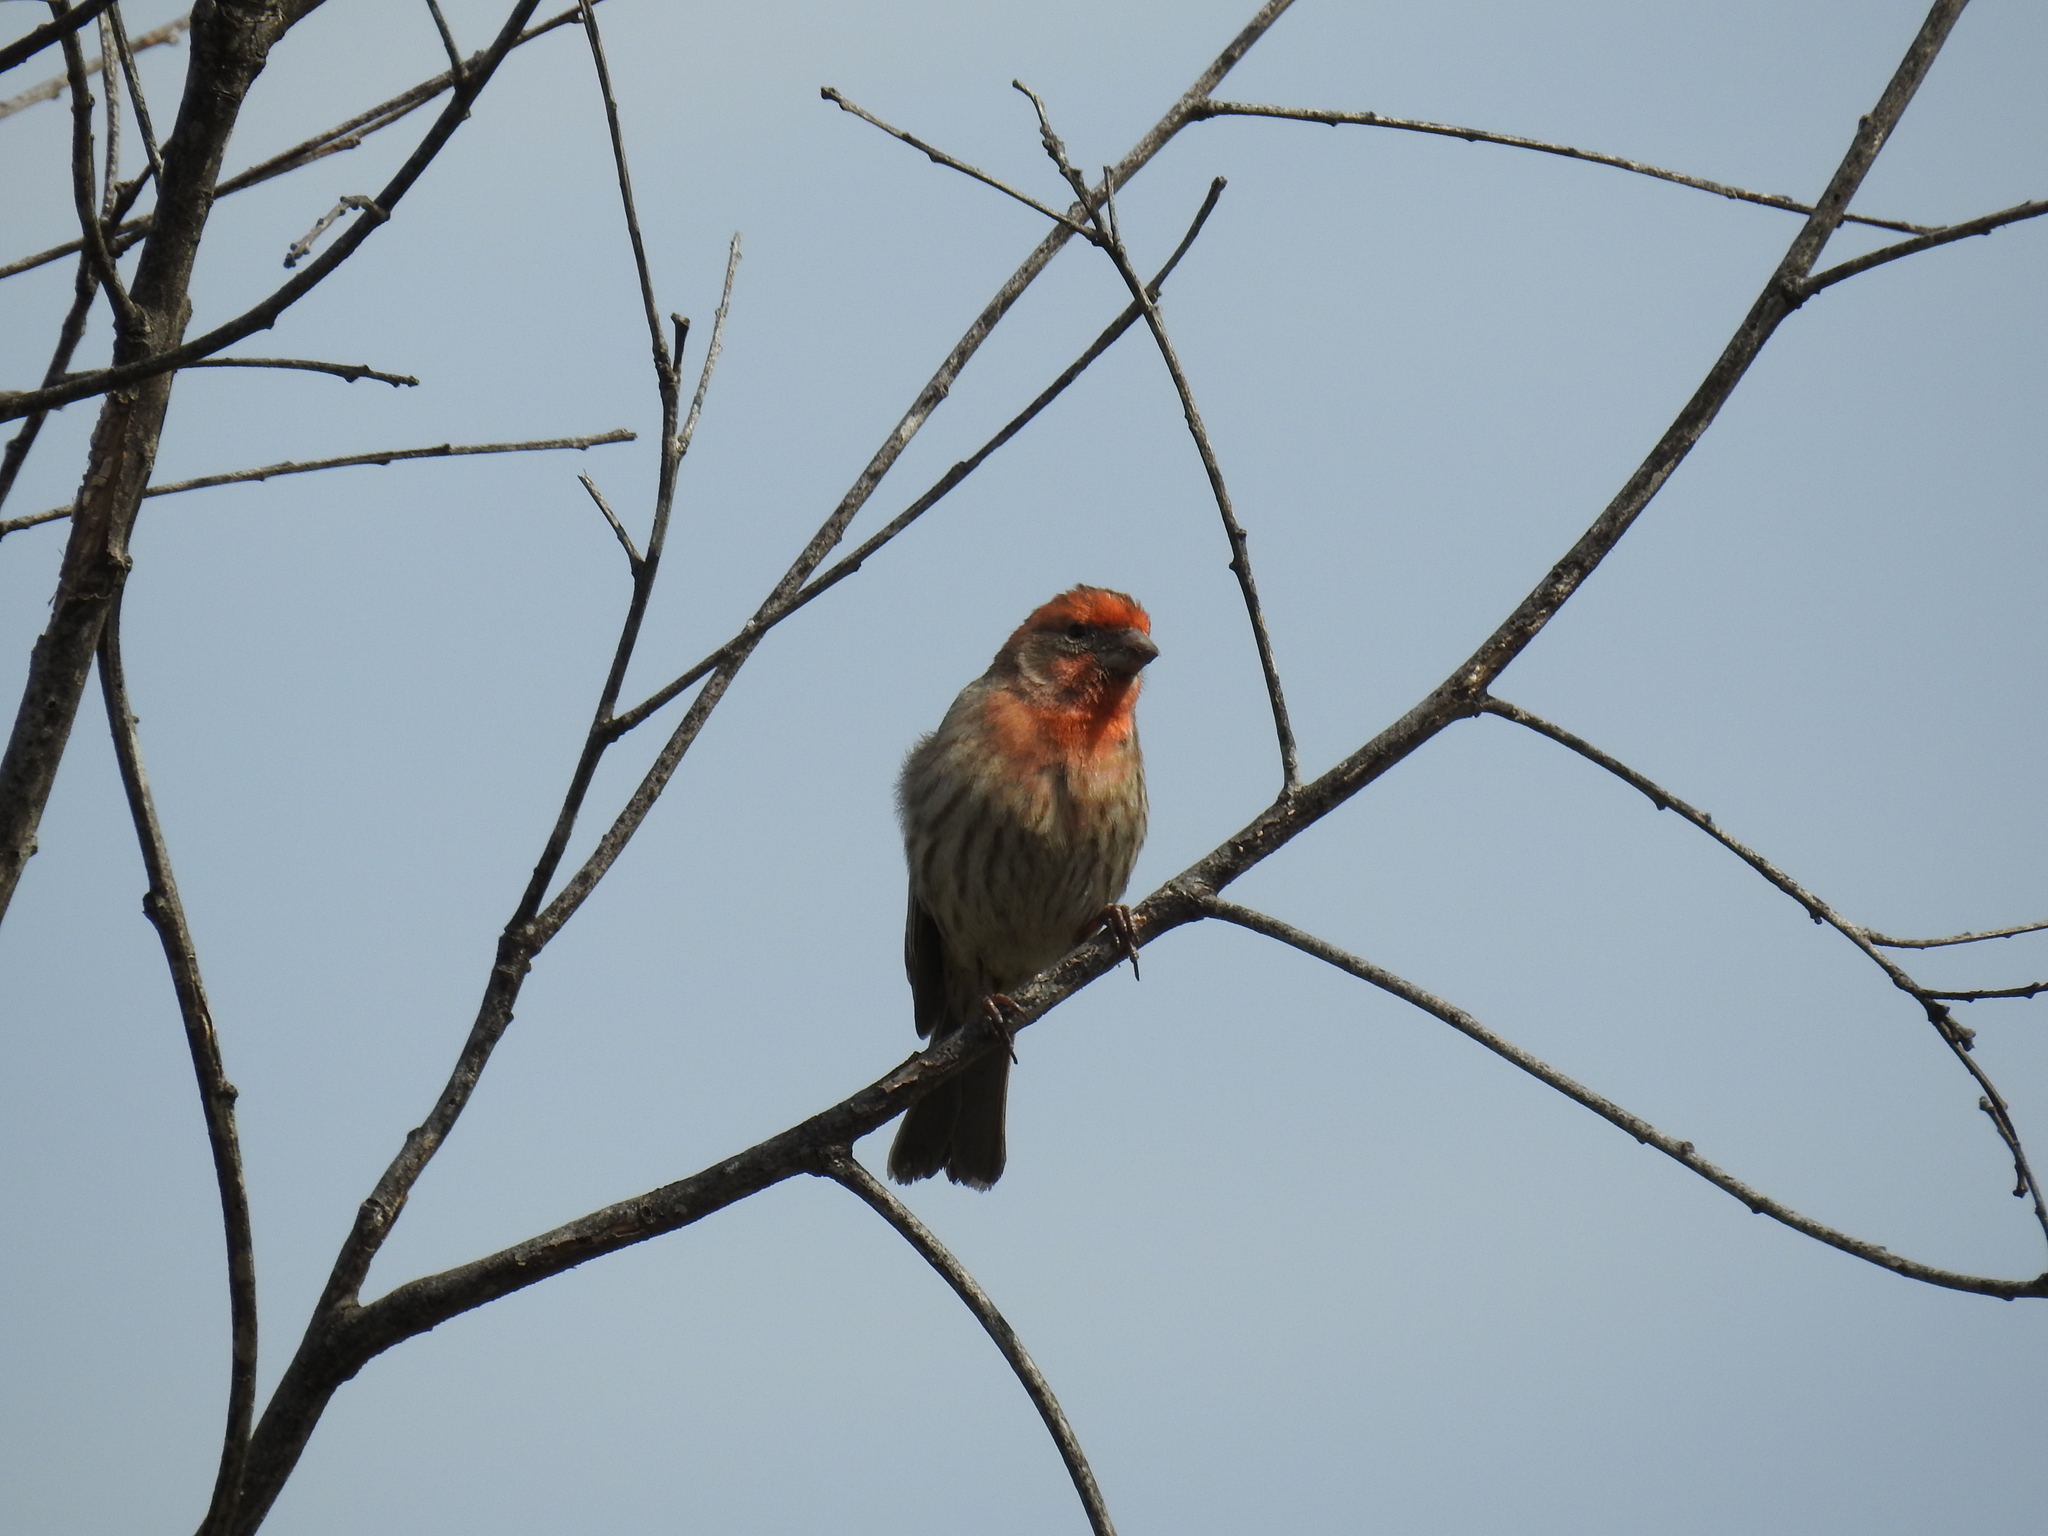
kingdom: Animalia
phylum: Chordata
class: Aves
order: Passeriformes
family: Fringillidae
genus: Haemorhous
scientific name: Haemorhous mexicanus
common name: House finch
